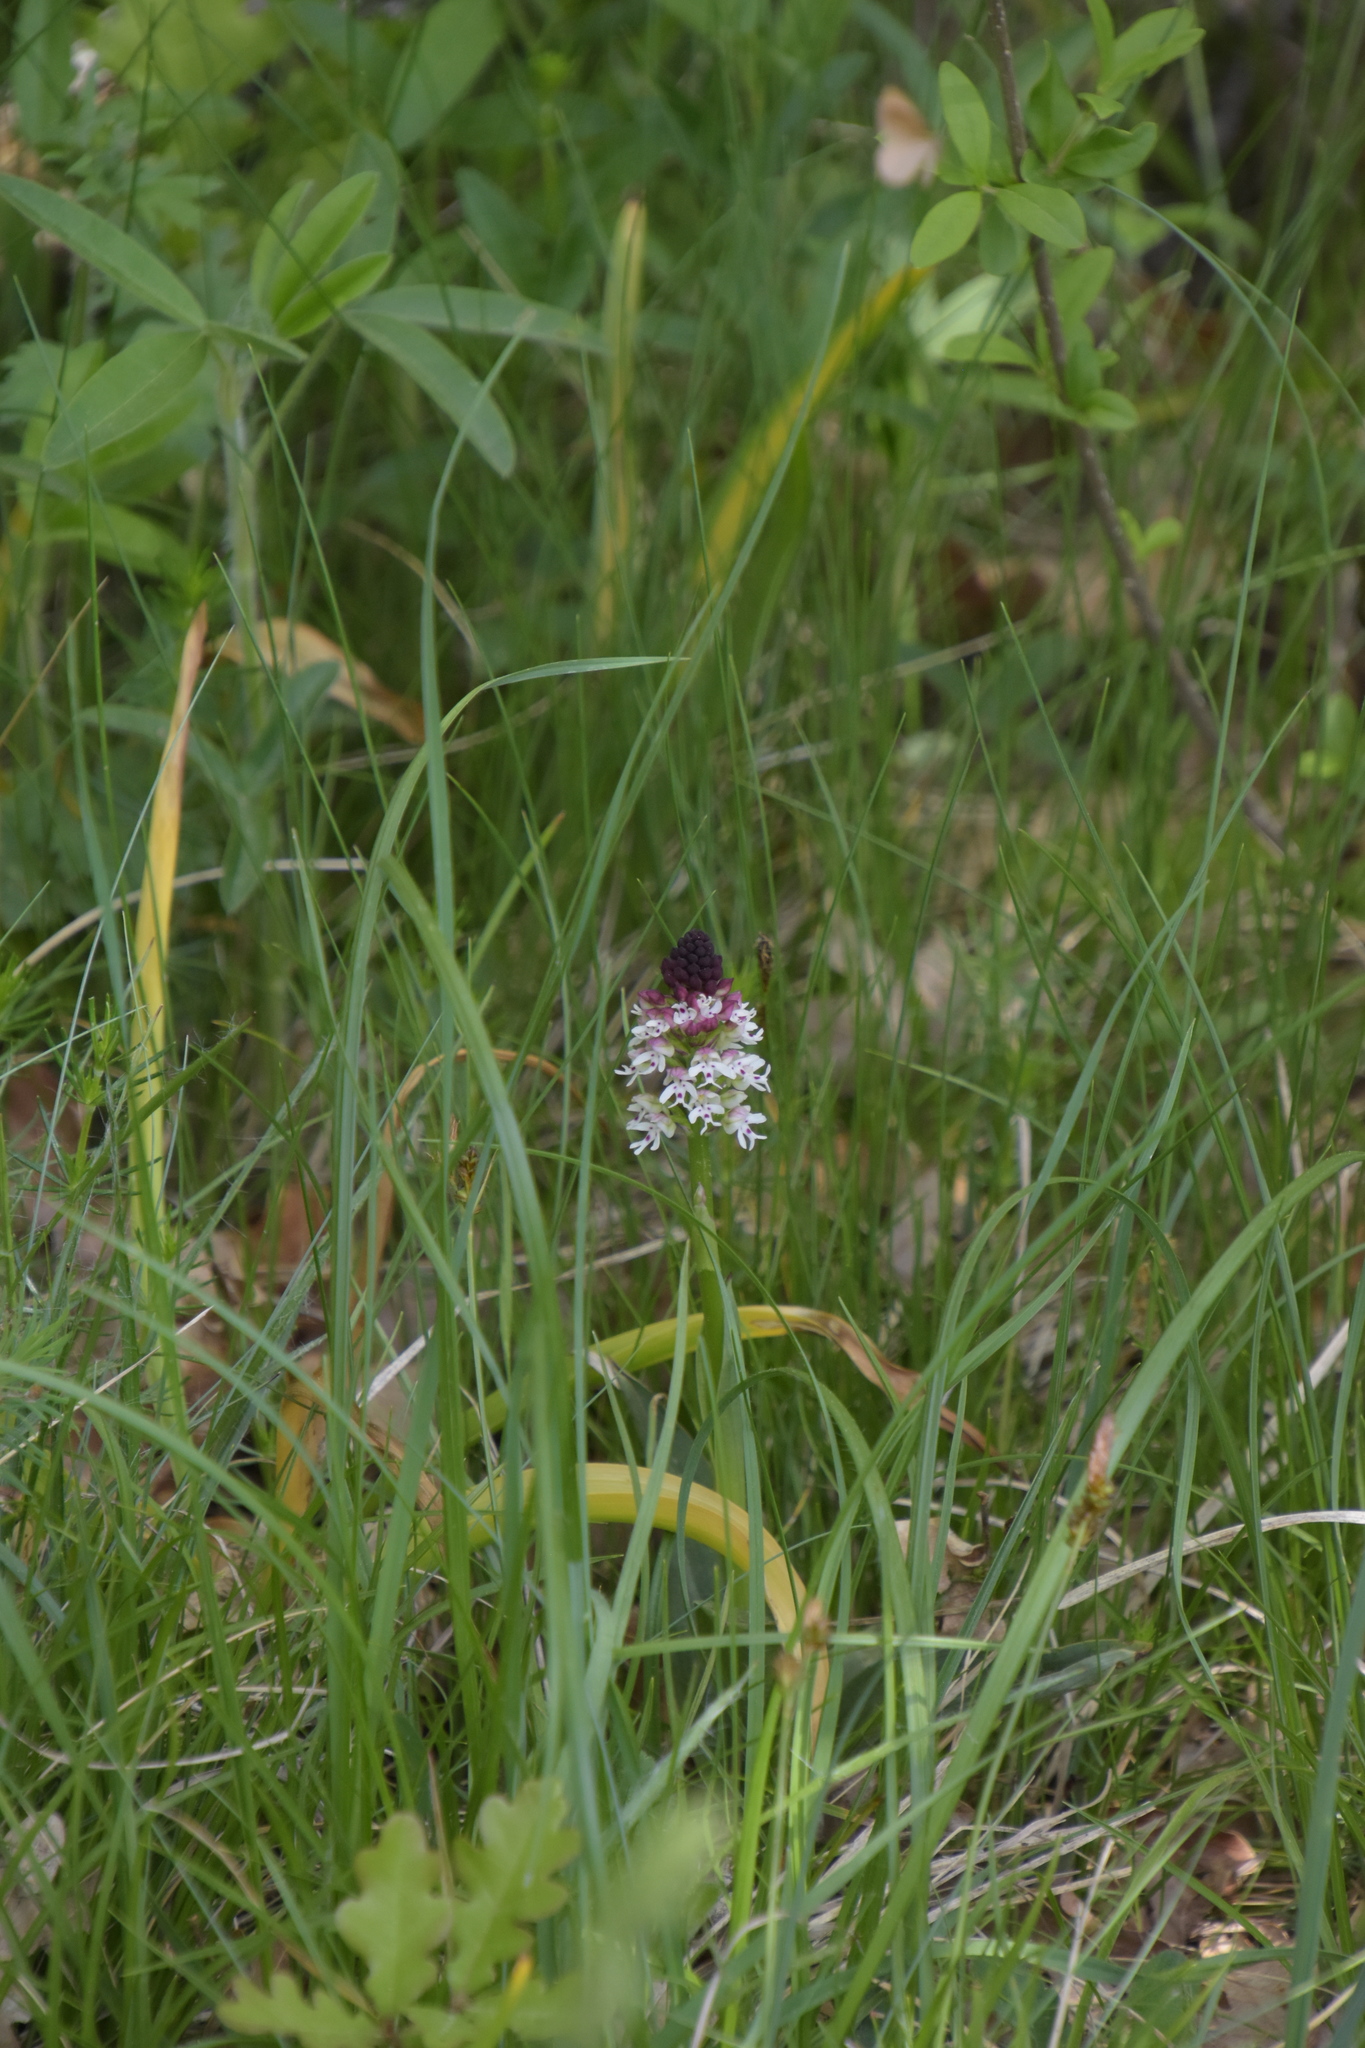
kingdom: Plantae
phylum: Tracheophyta
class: Liliopsida
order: Asparagales
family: Orchidaceae
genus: Neotinea
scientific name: Neotinea ustulata
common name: Burnt orchid
